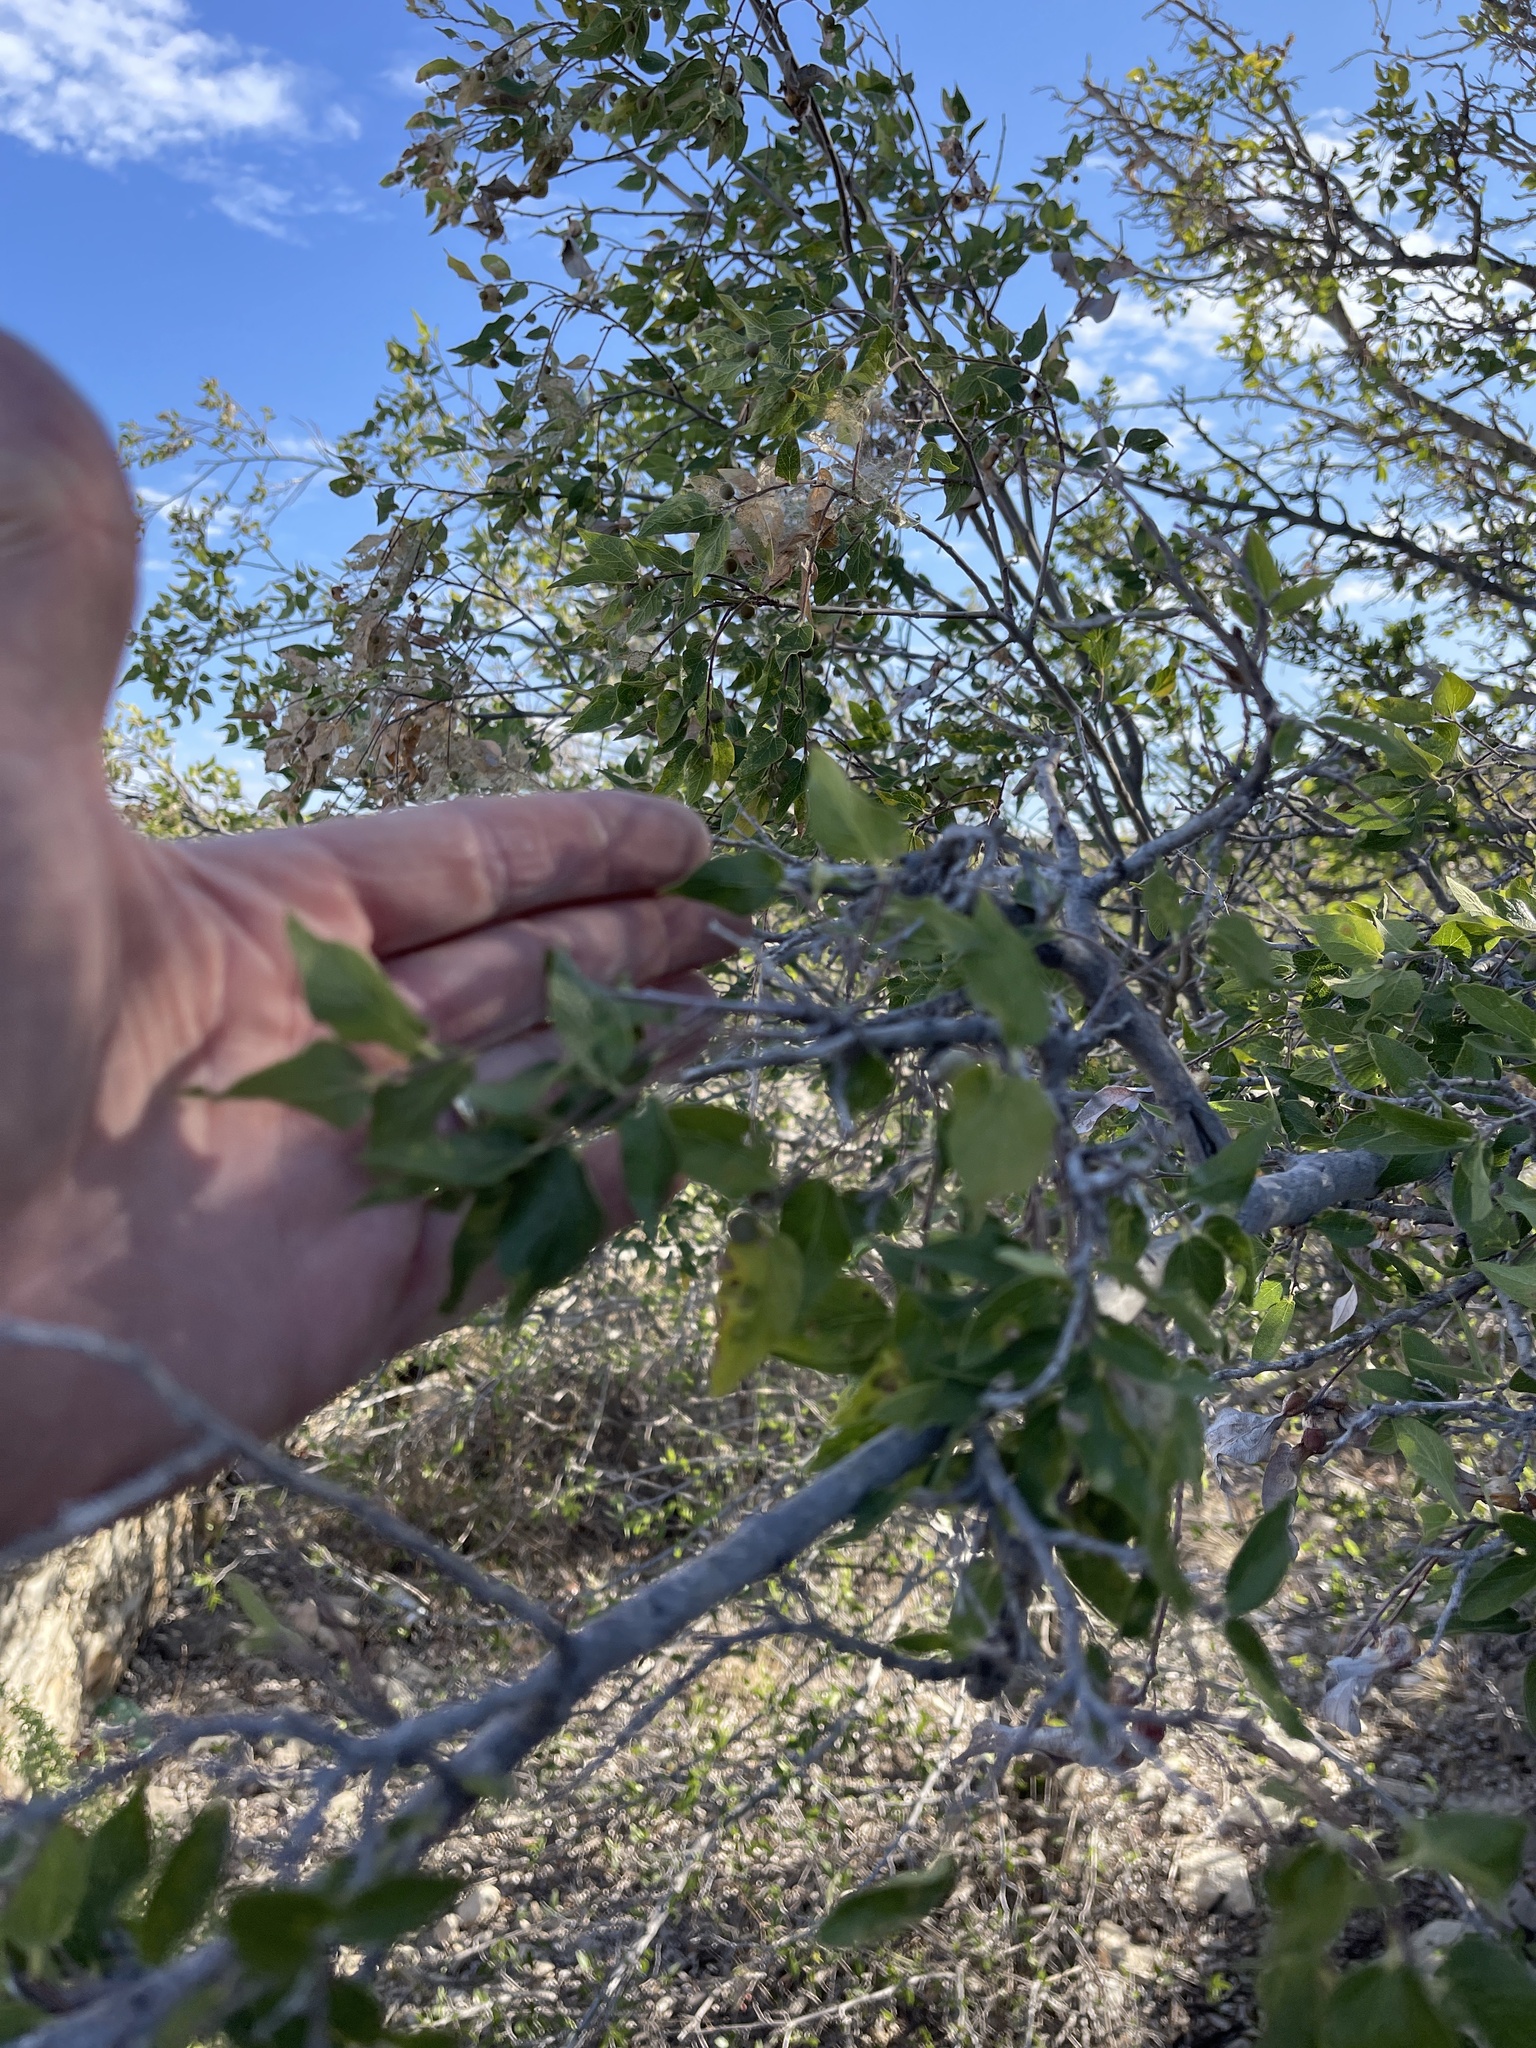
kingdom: Plantae
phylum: Tracheophyta
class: Magnoliopsida
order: Rosales
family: Cannabaceae
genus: Celtis
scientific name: Celtis reticulata
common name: Netleaf hackberry
